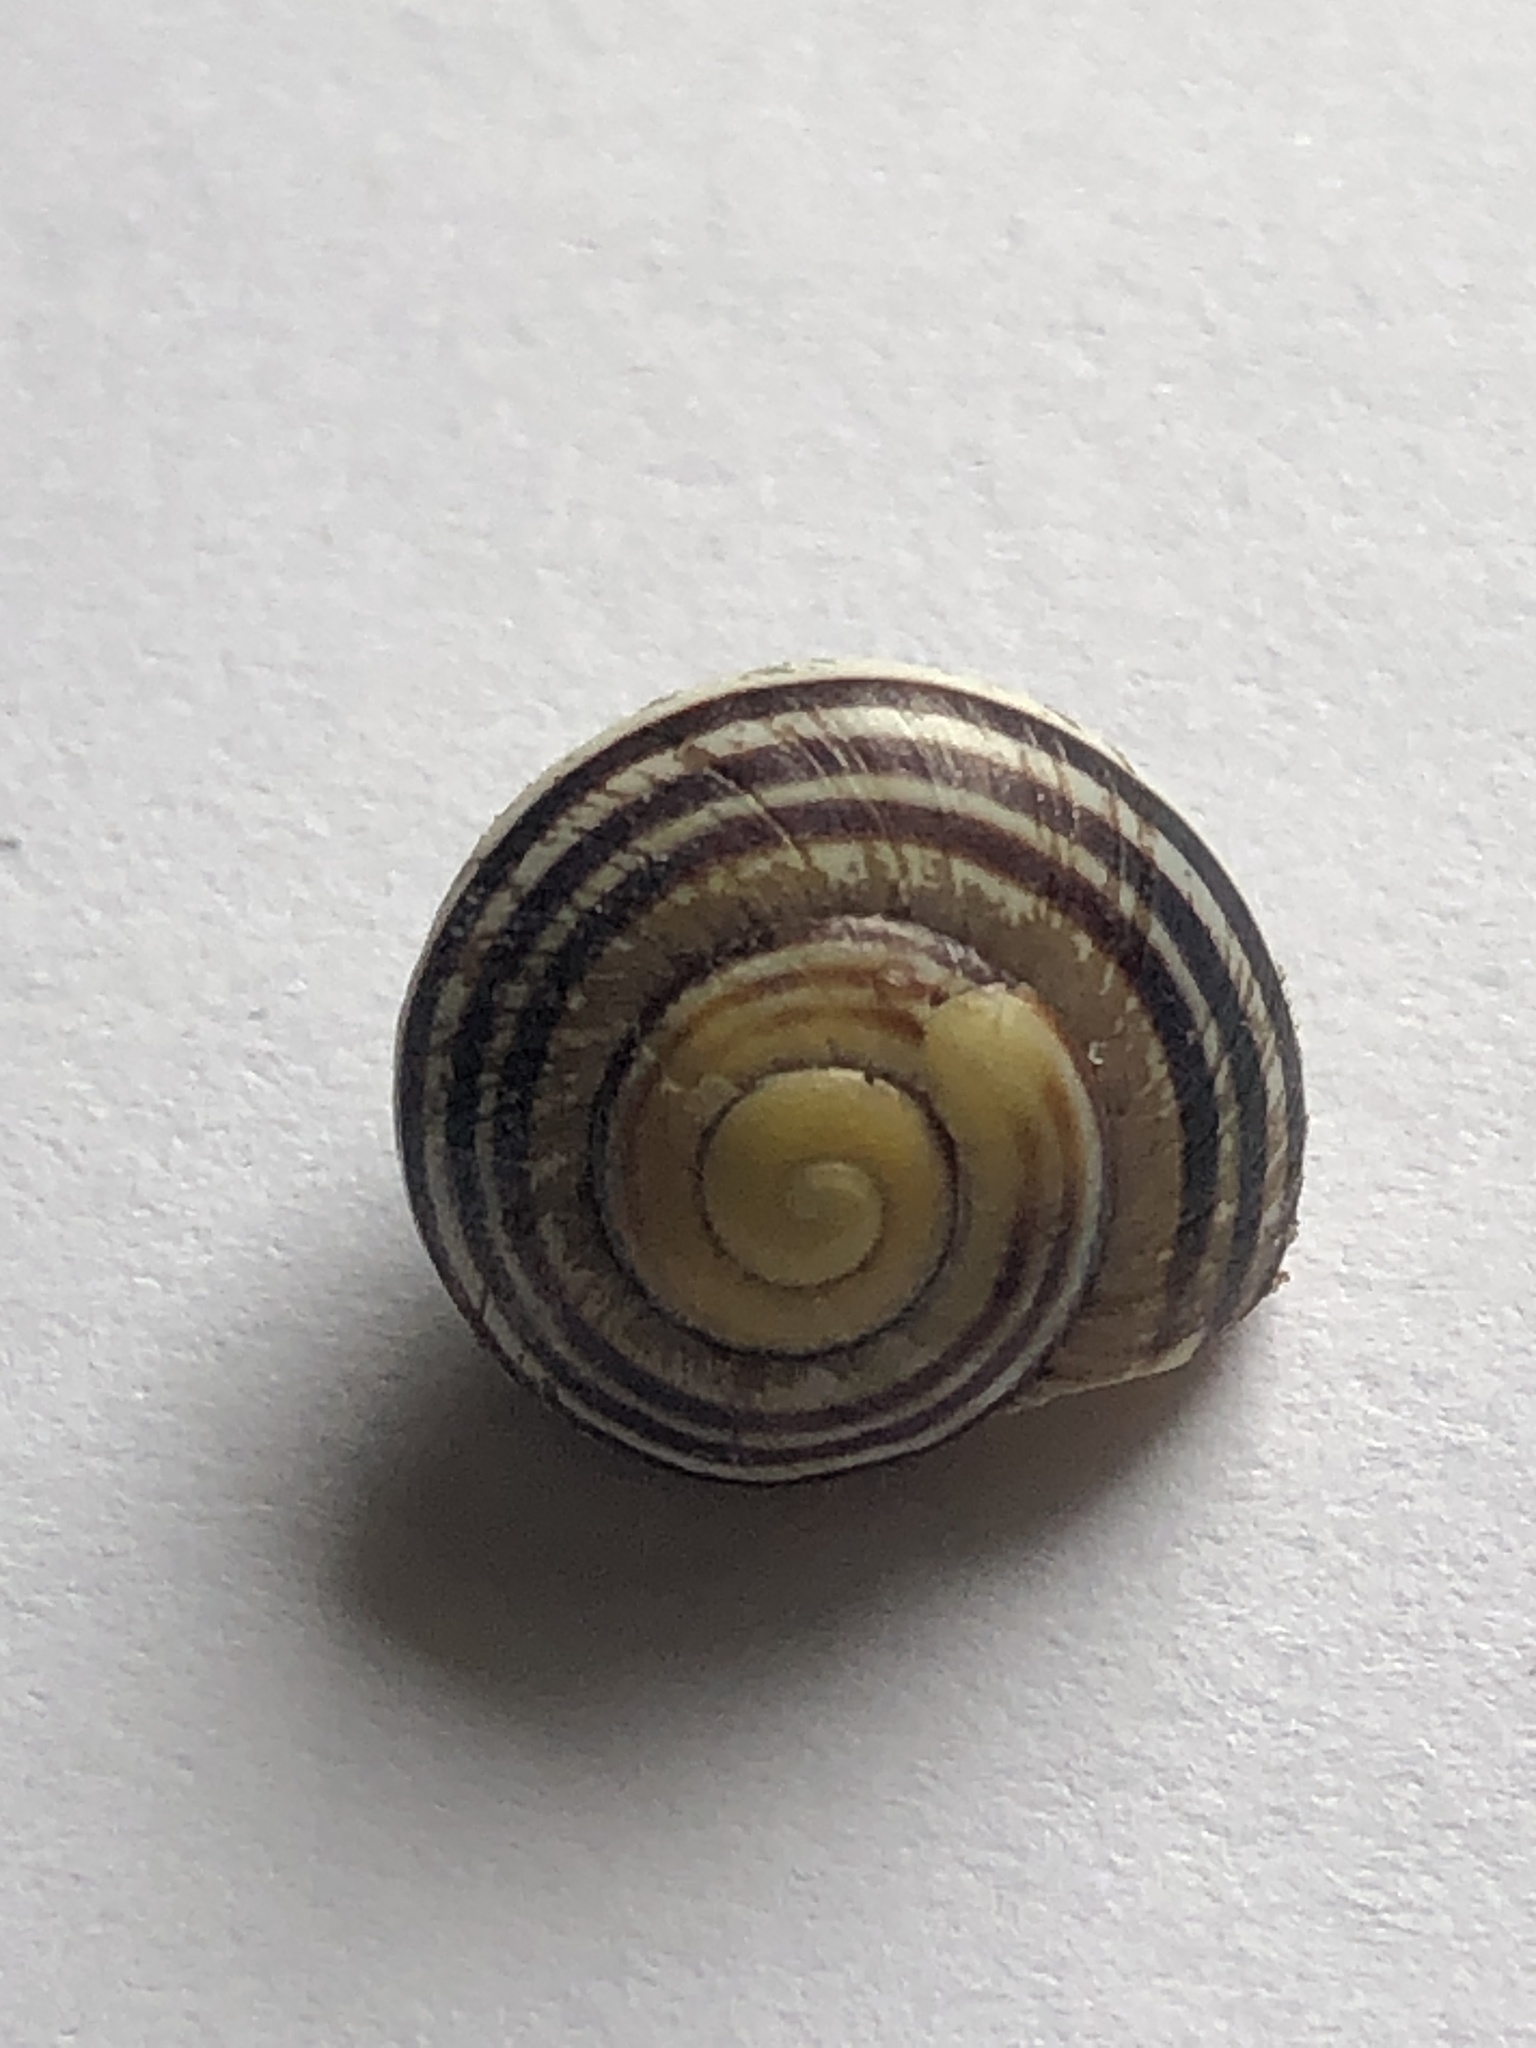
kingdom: Animalia
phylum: Mollusca
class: Gastropoda
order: Stylommatophora
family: Helicidae
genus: Cepaea
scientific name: Cepaea
